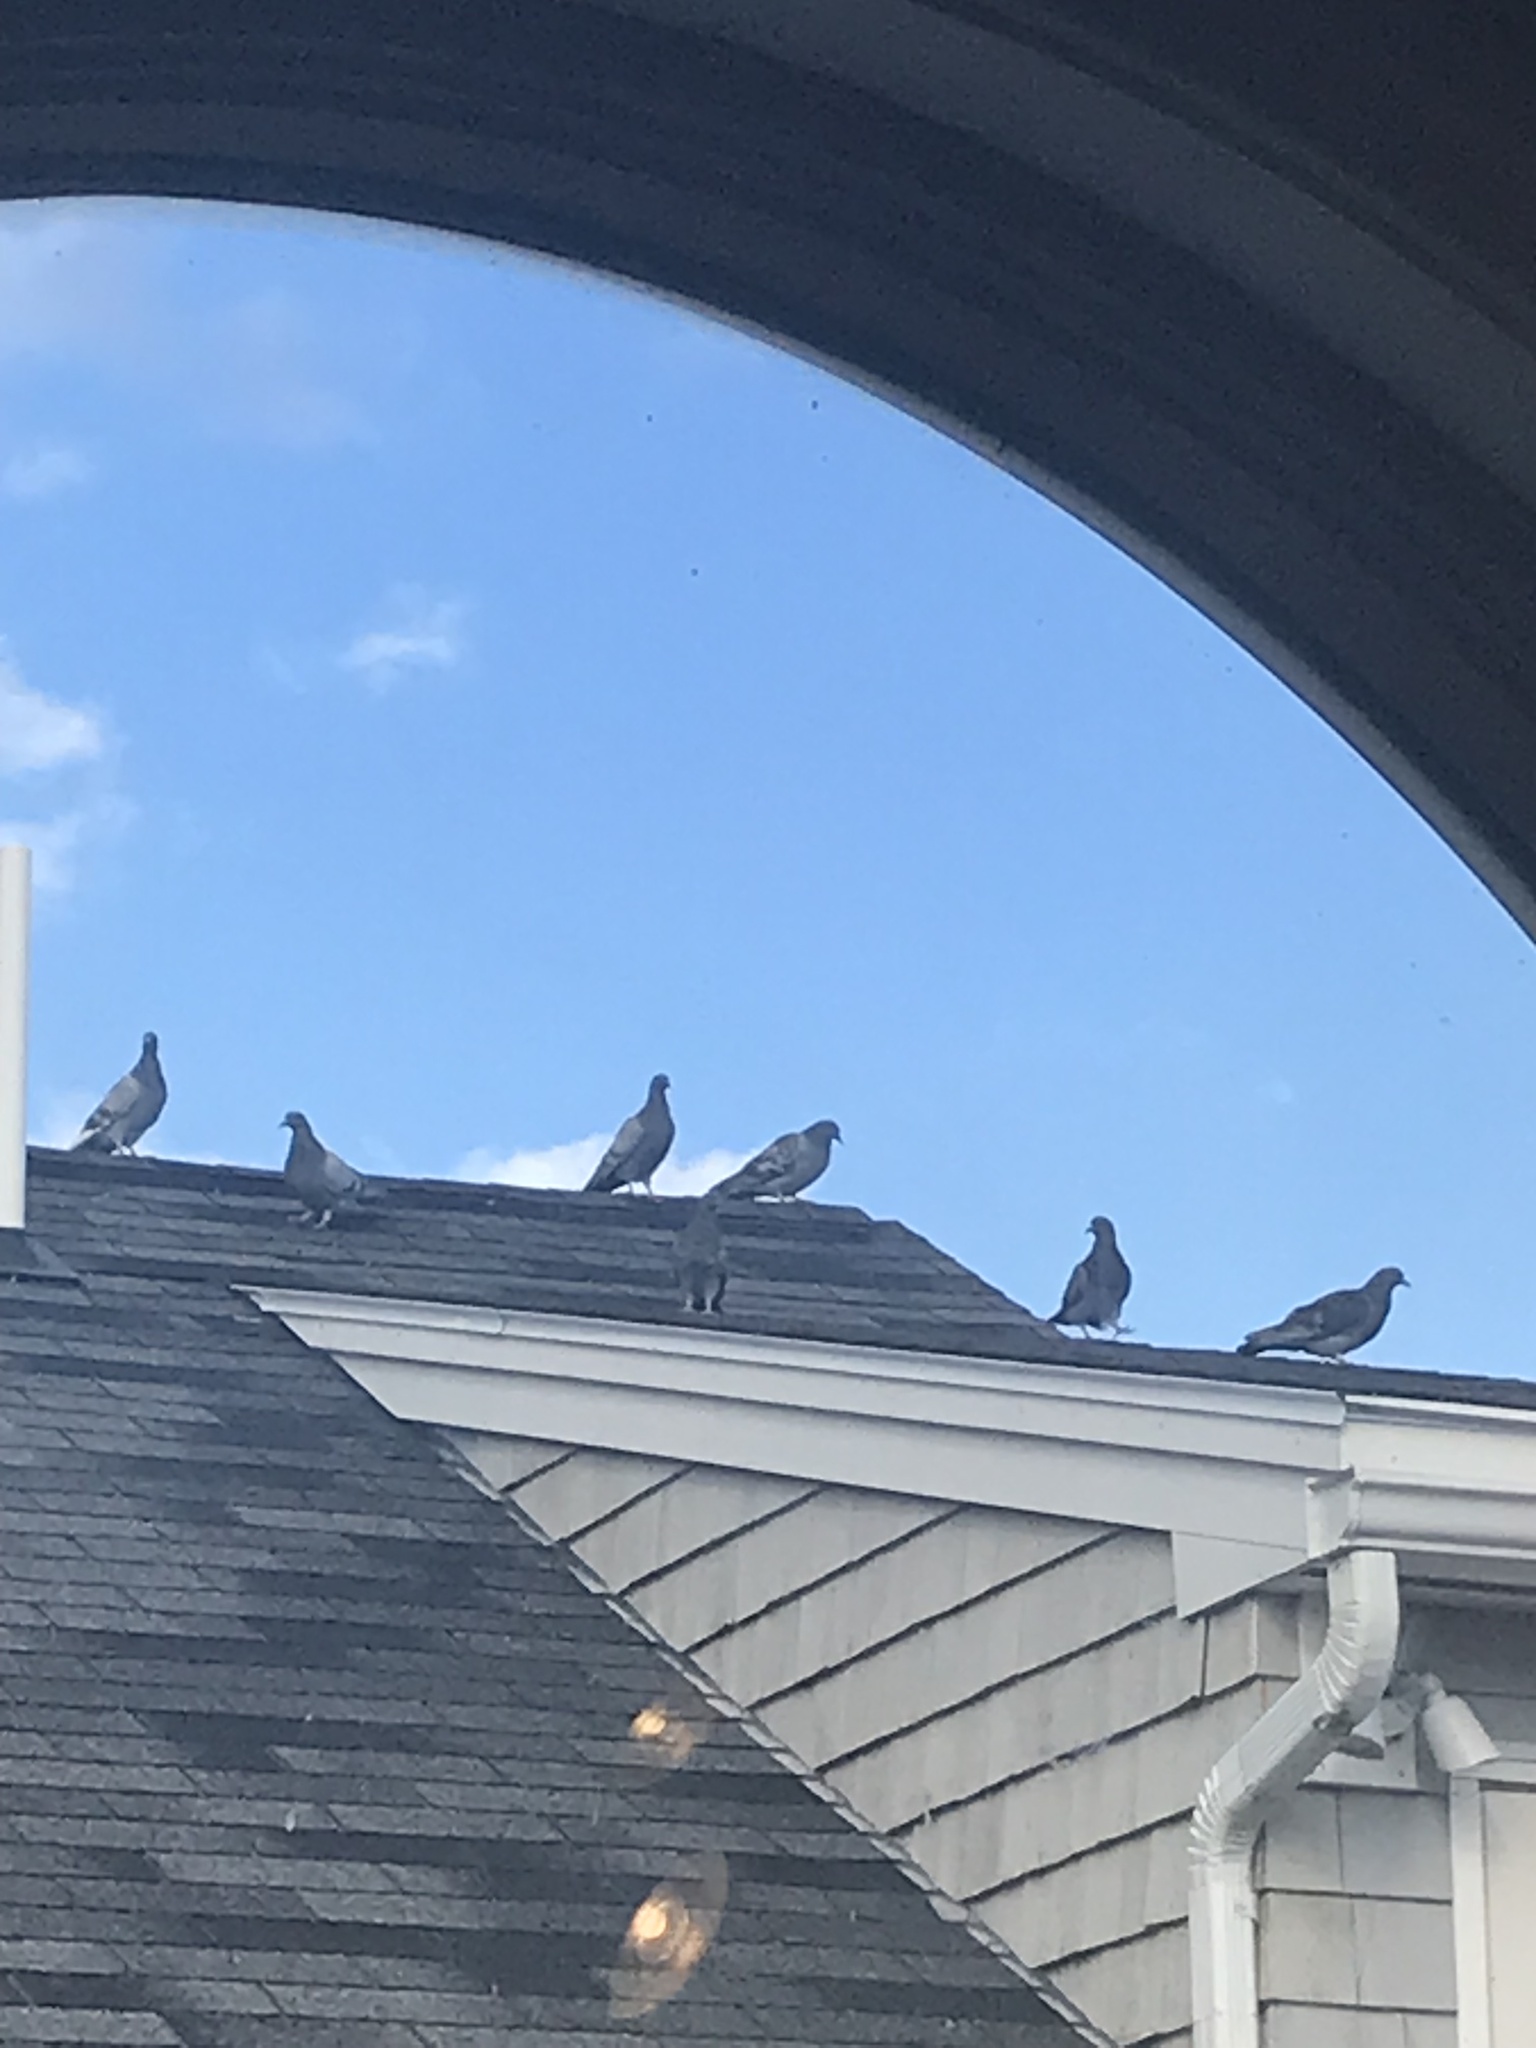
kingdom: Animalia
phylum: Chordata
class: Aves
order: Columbiformes
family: Columbidae
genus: Columba
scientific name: Columba livia
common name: Rock pigeon
